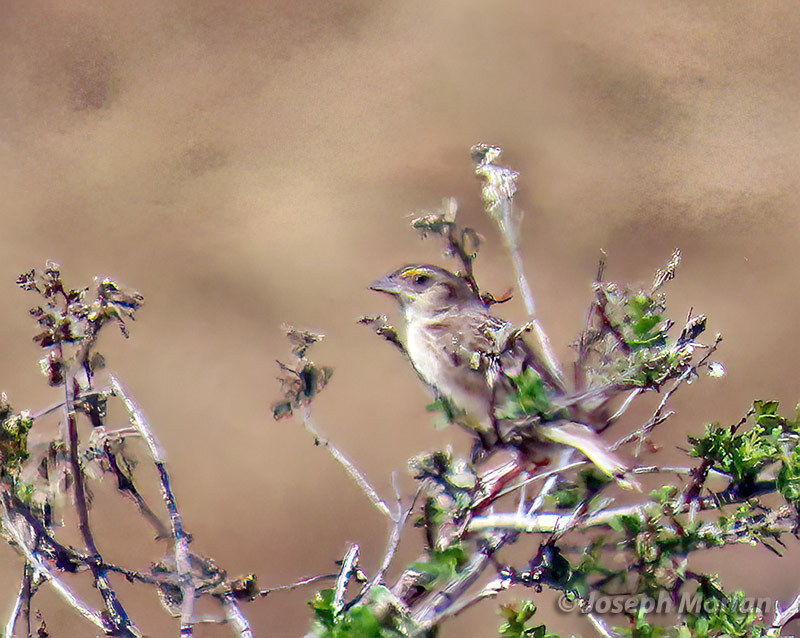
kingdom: Animalia
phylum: Chordata
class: Aves
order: Passeriformes
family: Passerellidae
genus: Ammodramus
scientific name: Ammodramus savannarum
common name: Grasshopper sparrow
